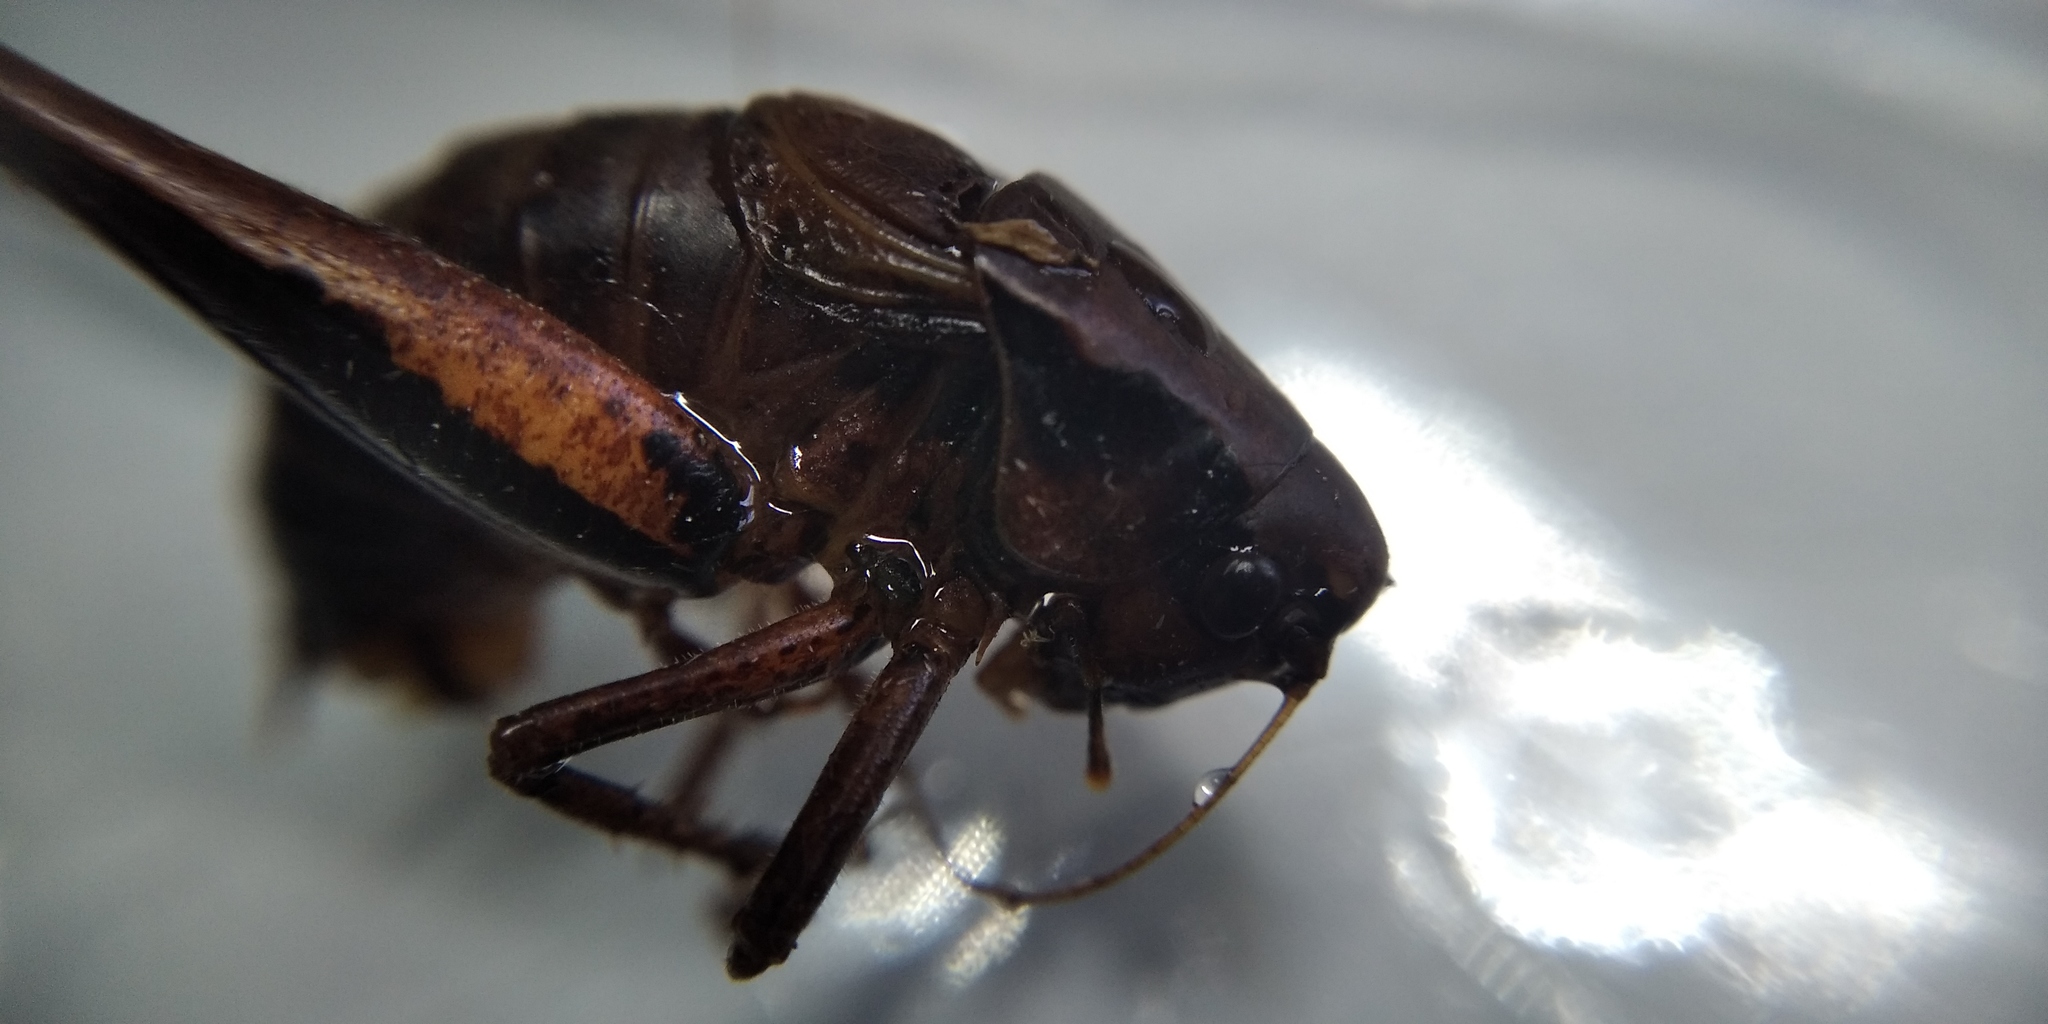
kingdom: Animalia
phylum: Arthropoda
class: Insecta
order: Orthoptera
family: Tettigoniidae
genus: Pholidoptera
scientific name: Pholidoptera griseoaptera
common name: Dark bush-cricket
